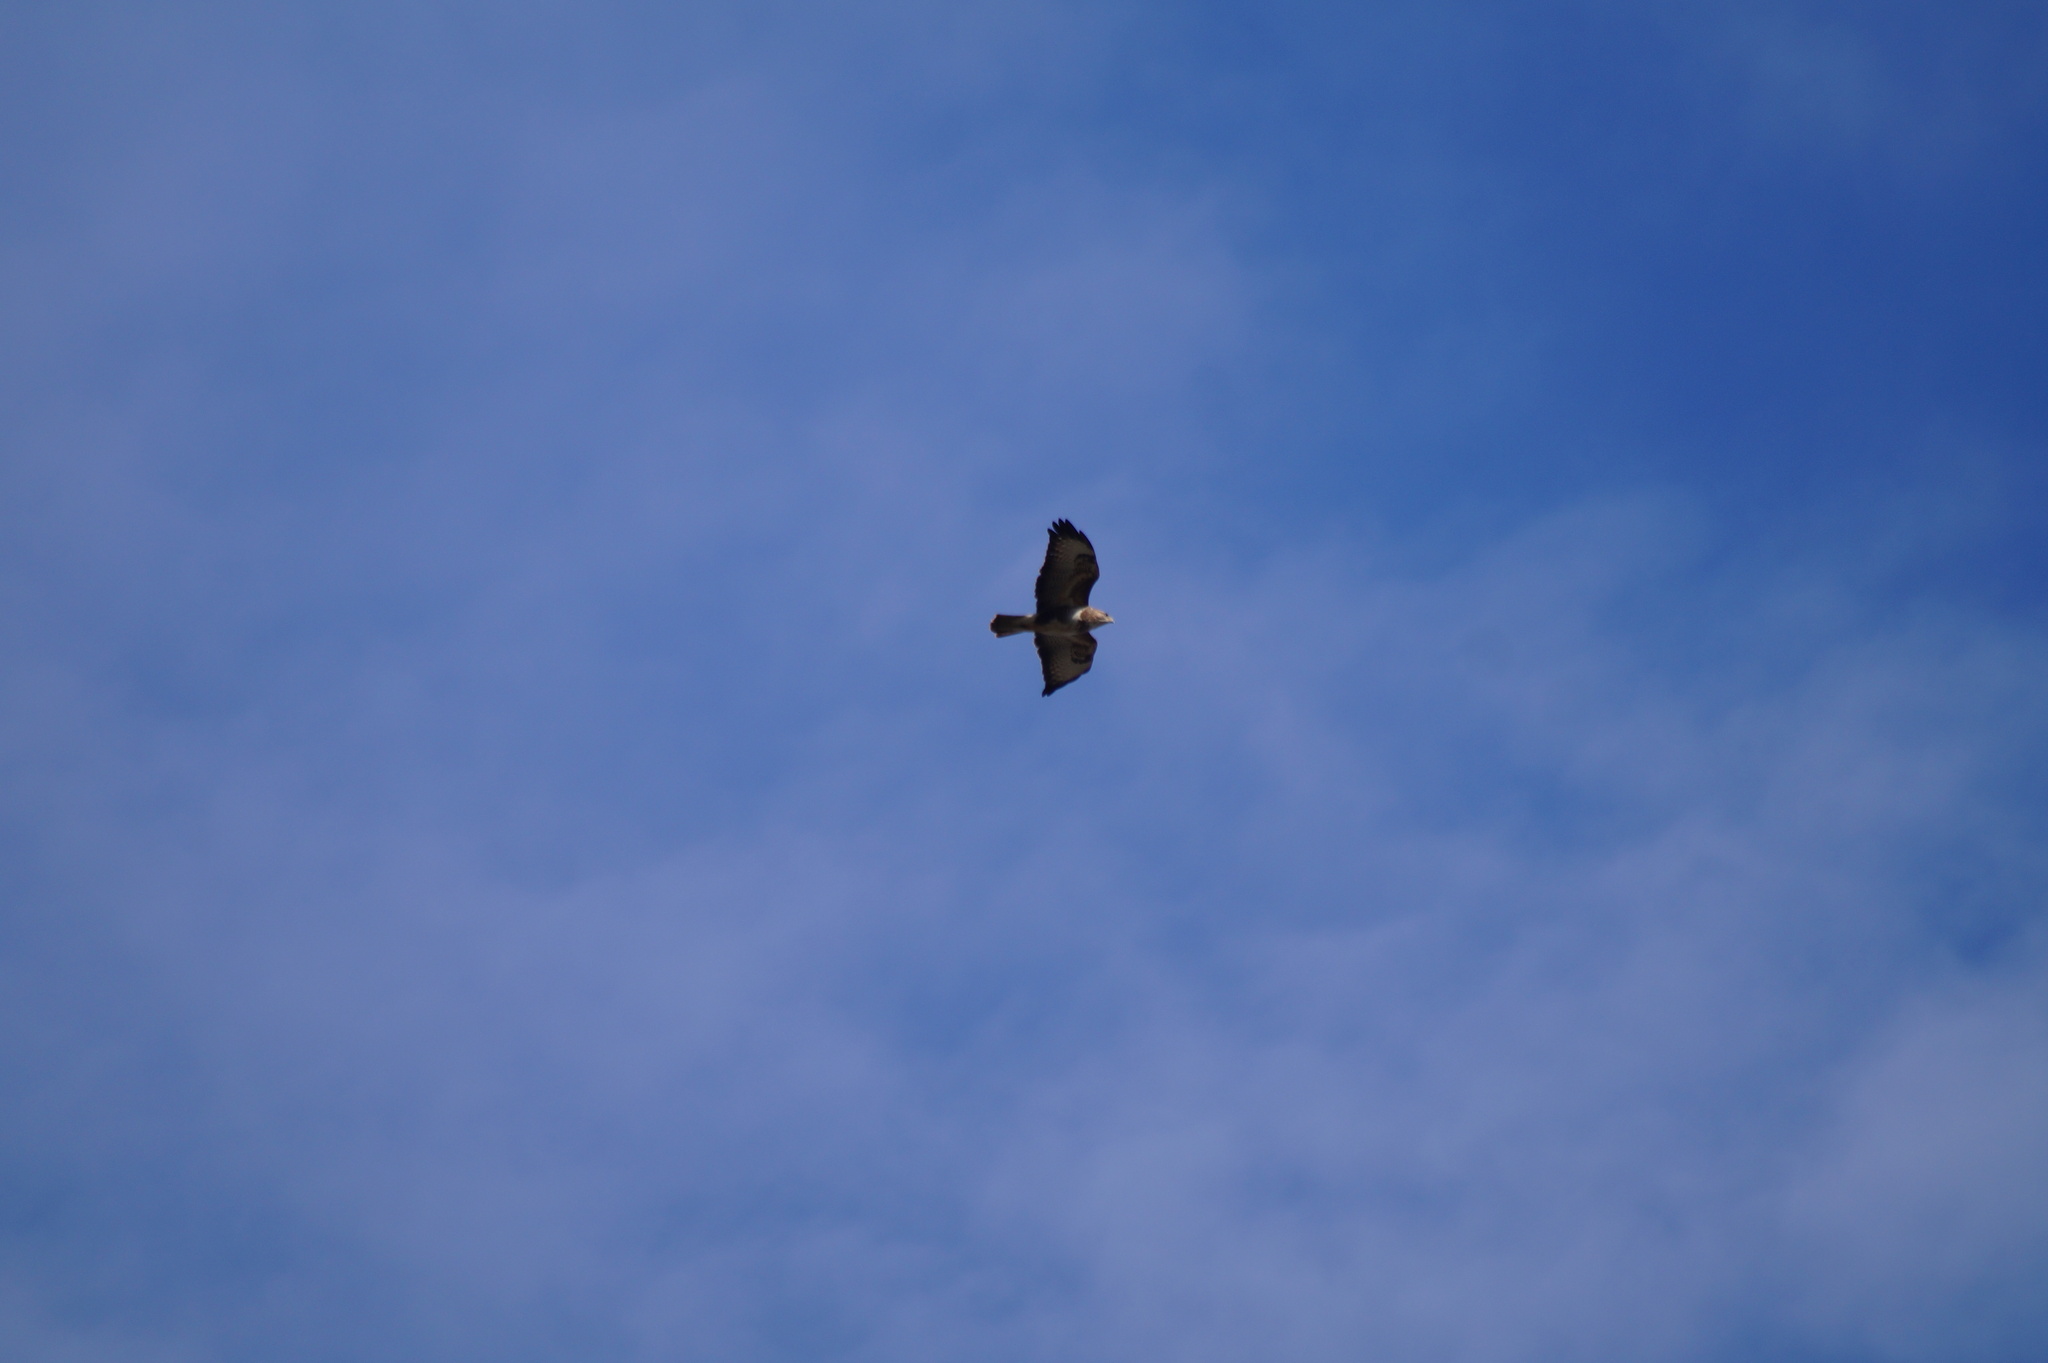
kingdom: Animalia
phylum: Chordata
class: Aves
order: Accipitriformes
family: Accipitridae
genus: Buteo
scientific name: Buteo buteo
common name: Common buzzard
